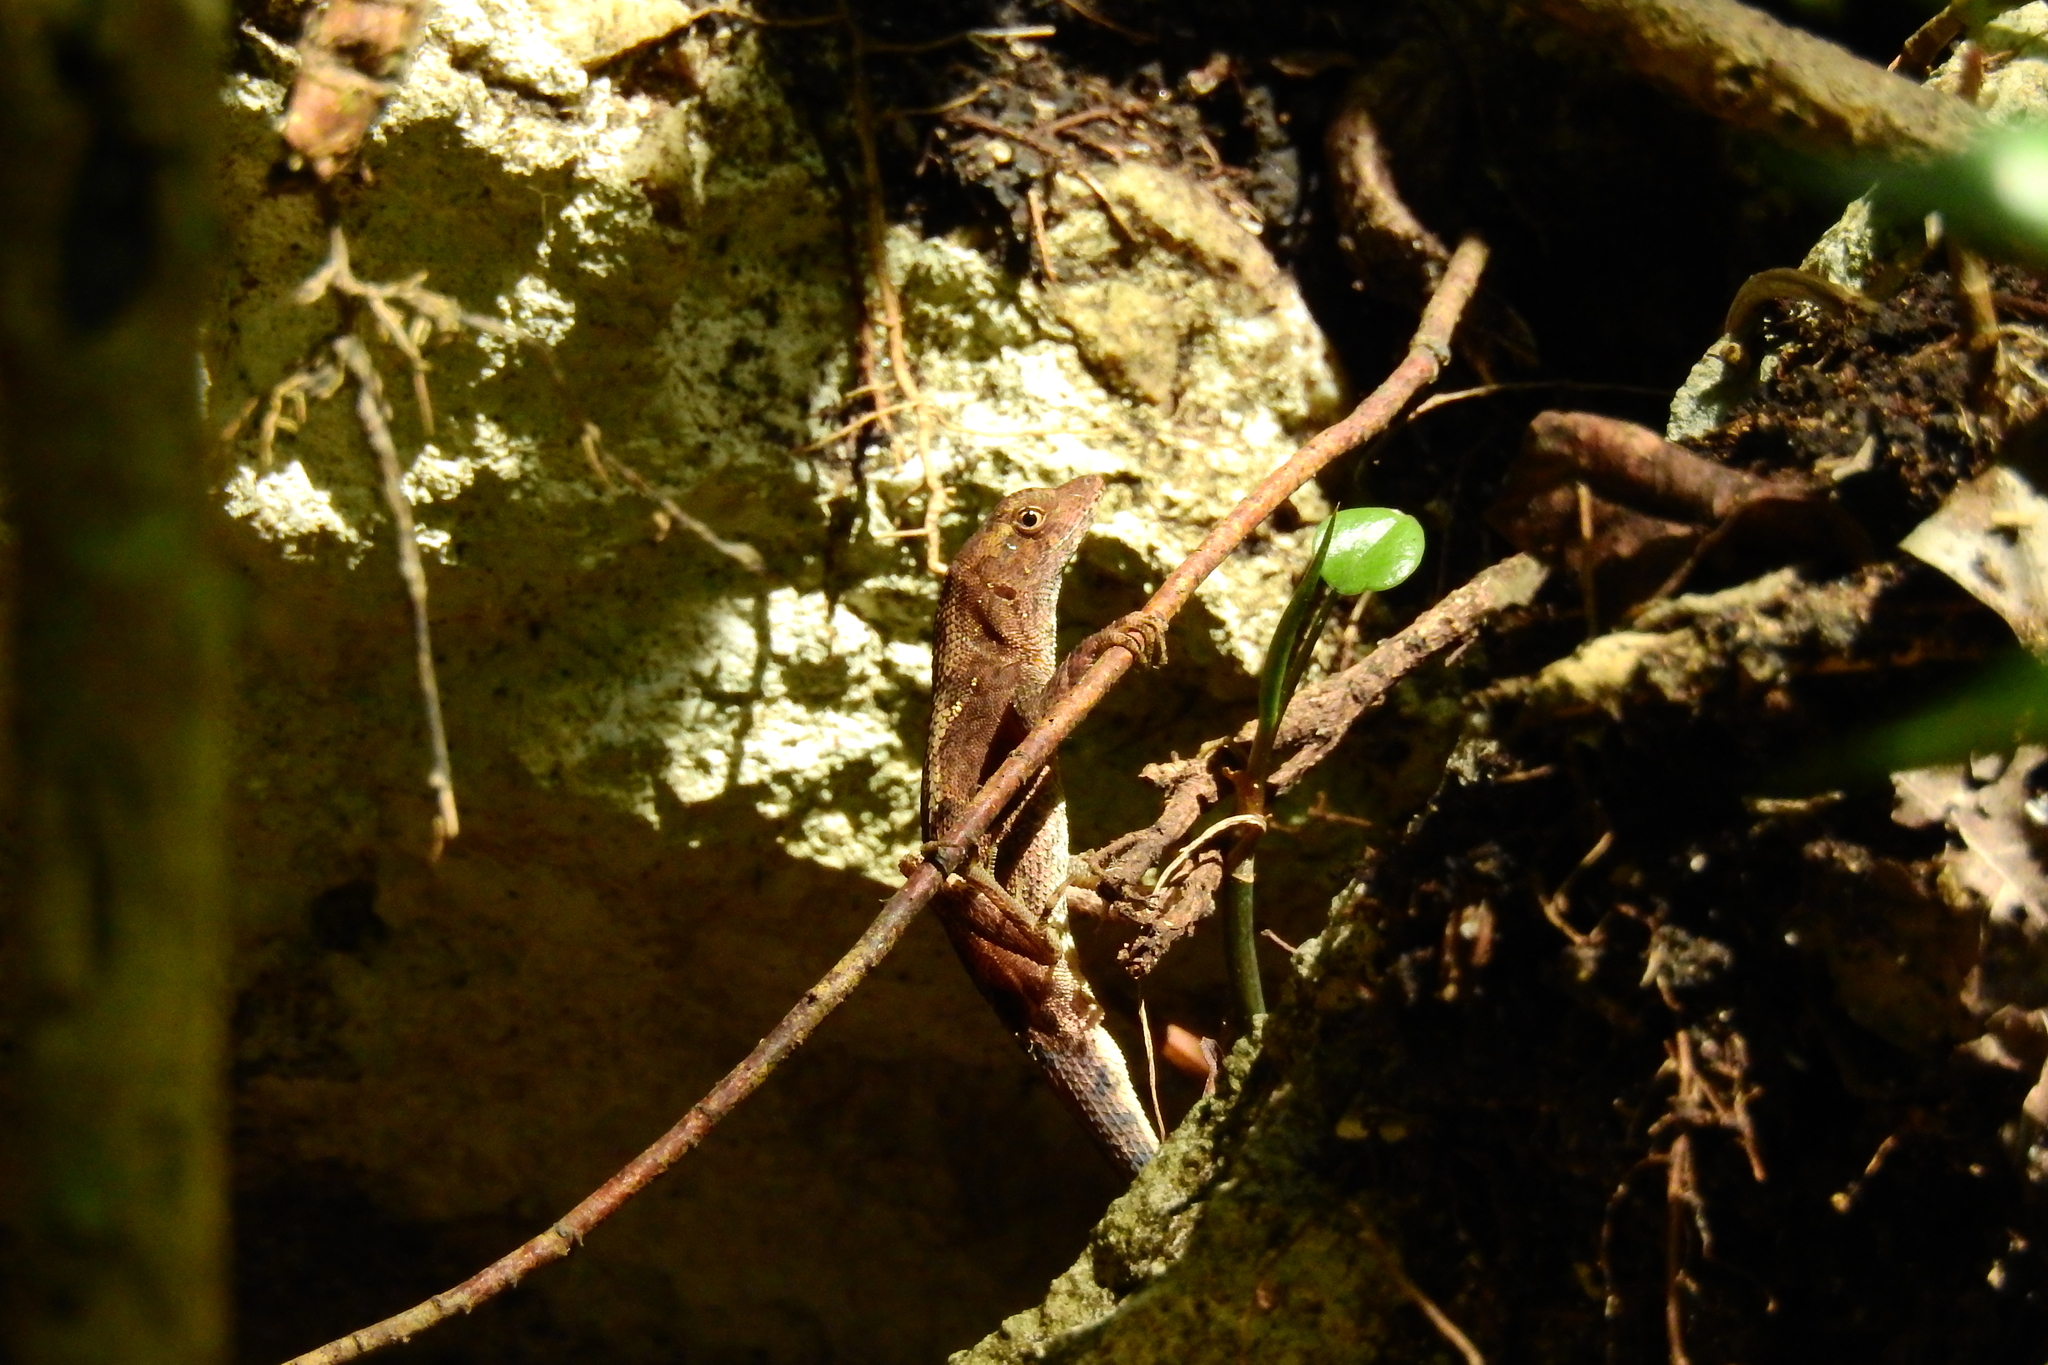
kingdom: Animalia
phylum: Chordata
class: Squamata
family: Dactyloidae
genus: Anolis
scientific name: Anolis tropidonotus
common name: Greater scaly anole
